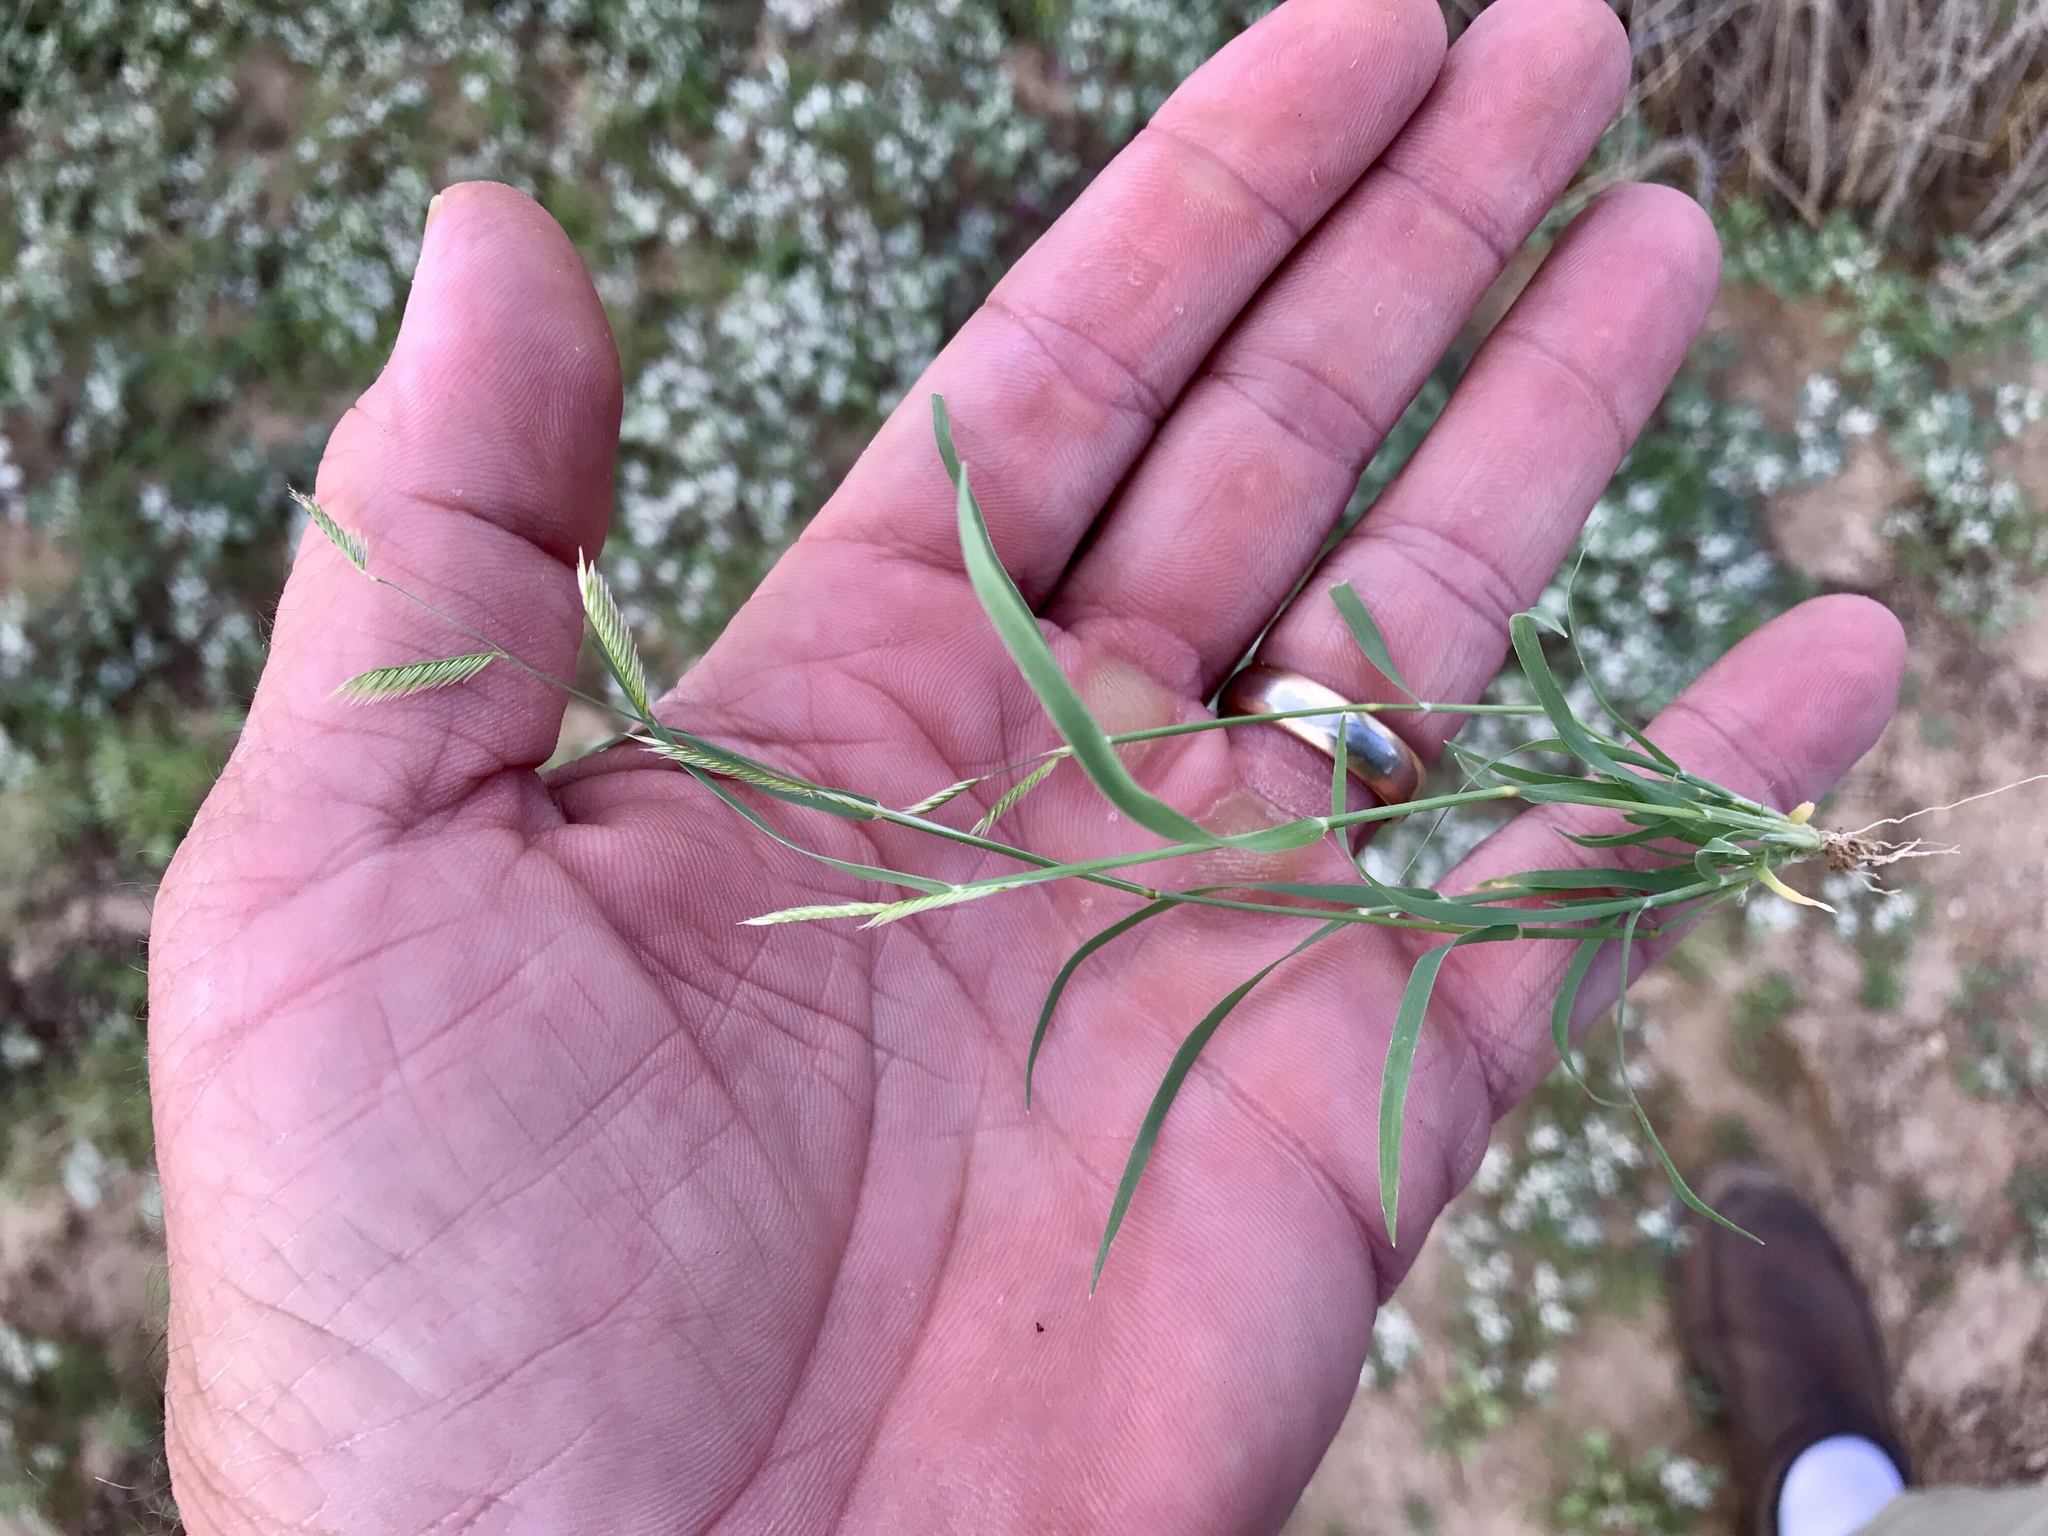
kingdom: Plantae
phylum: Tracheophyta
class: Liliopsida
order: Poales
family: Poaceae
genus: Bouteloua
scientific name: Bouteloua barbata
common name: Six-weeks grama
